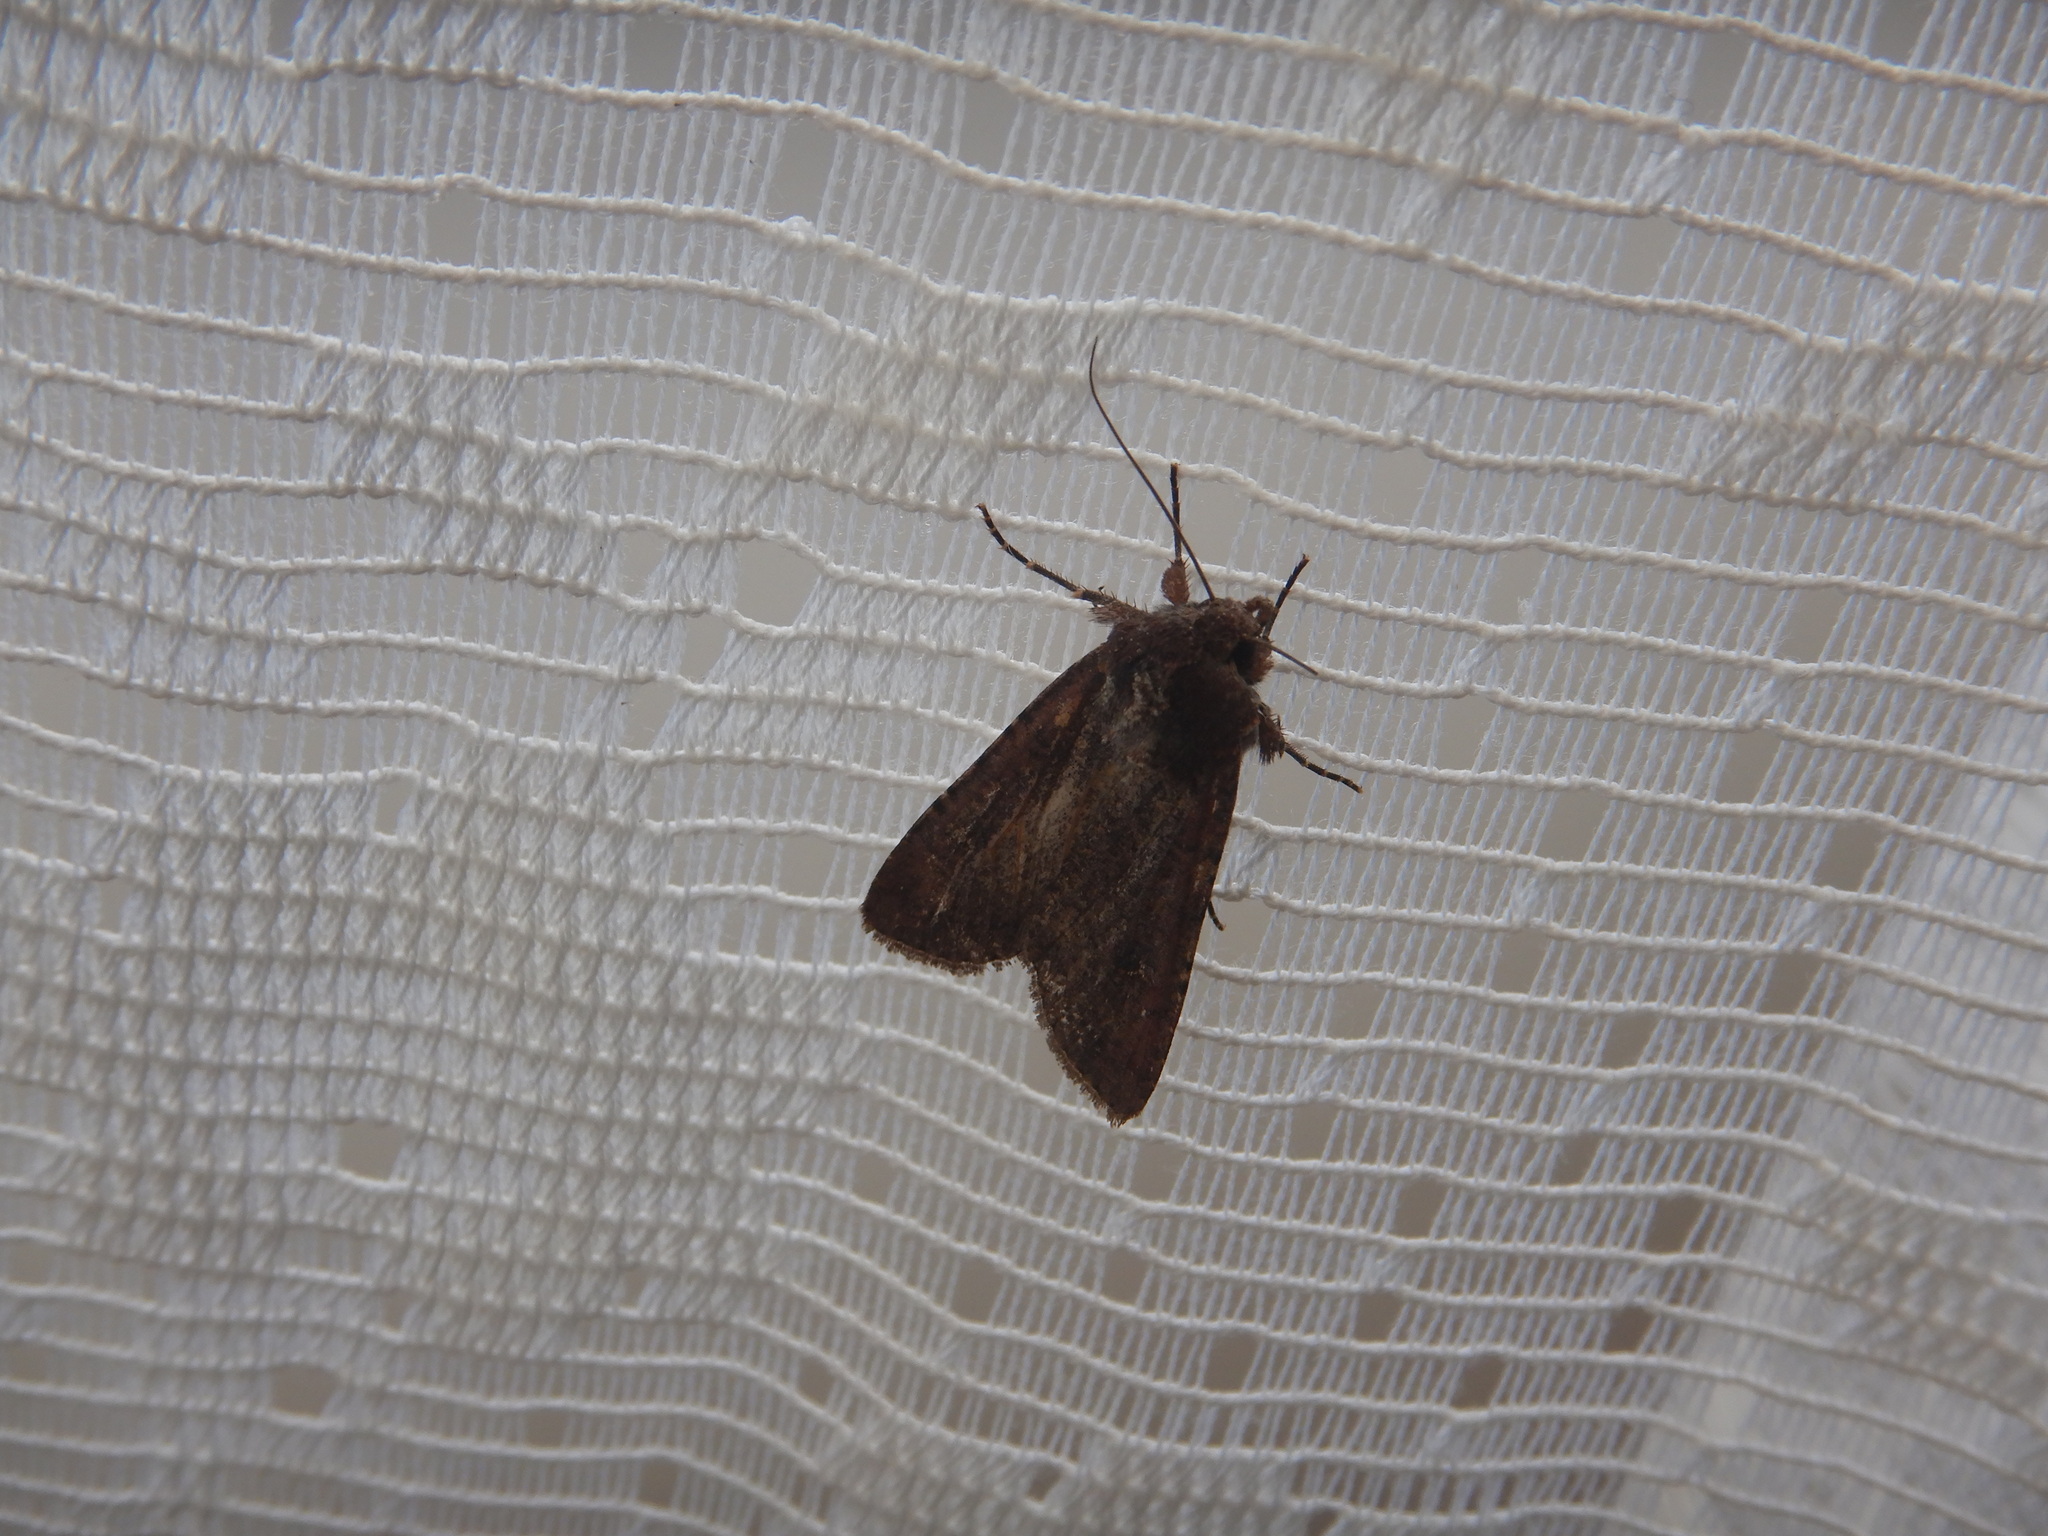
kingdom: Animalia
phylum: Arthropoda
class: Insecta
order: Lepidoptera
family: Noctuidae
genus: Peridroma
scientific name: Peridroma saucia
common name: Pearly underwing
